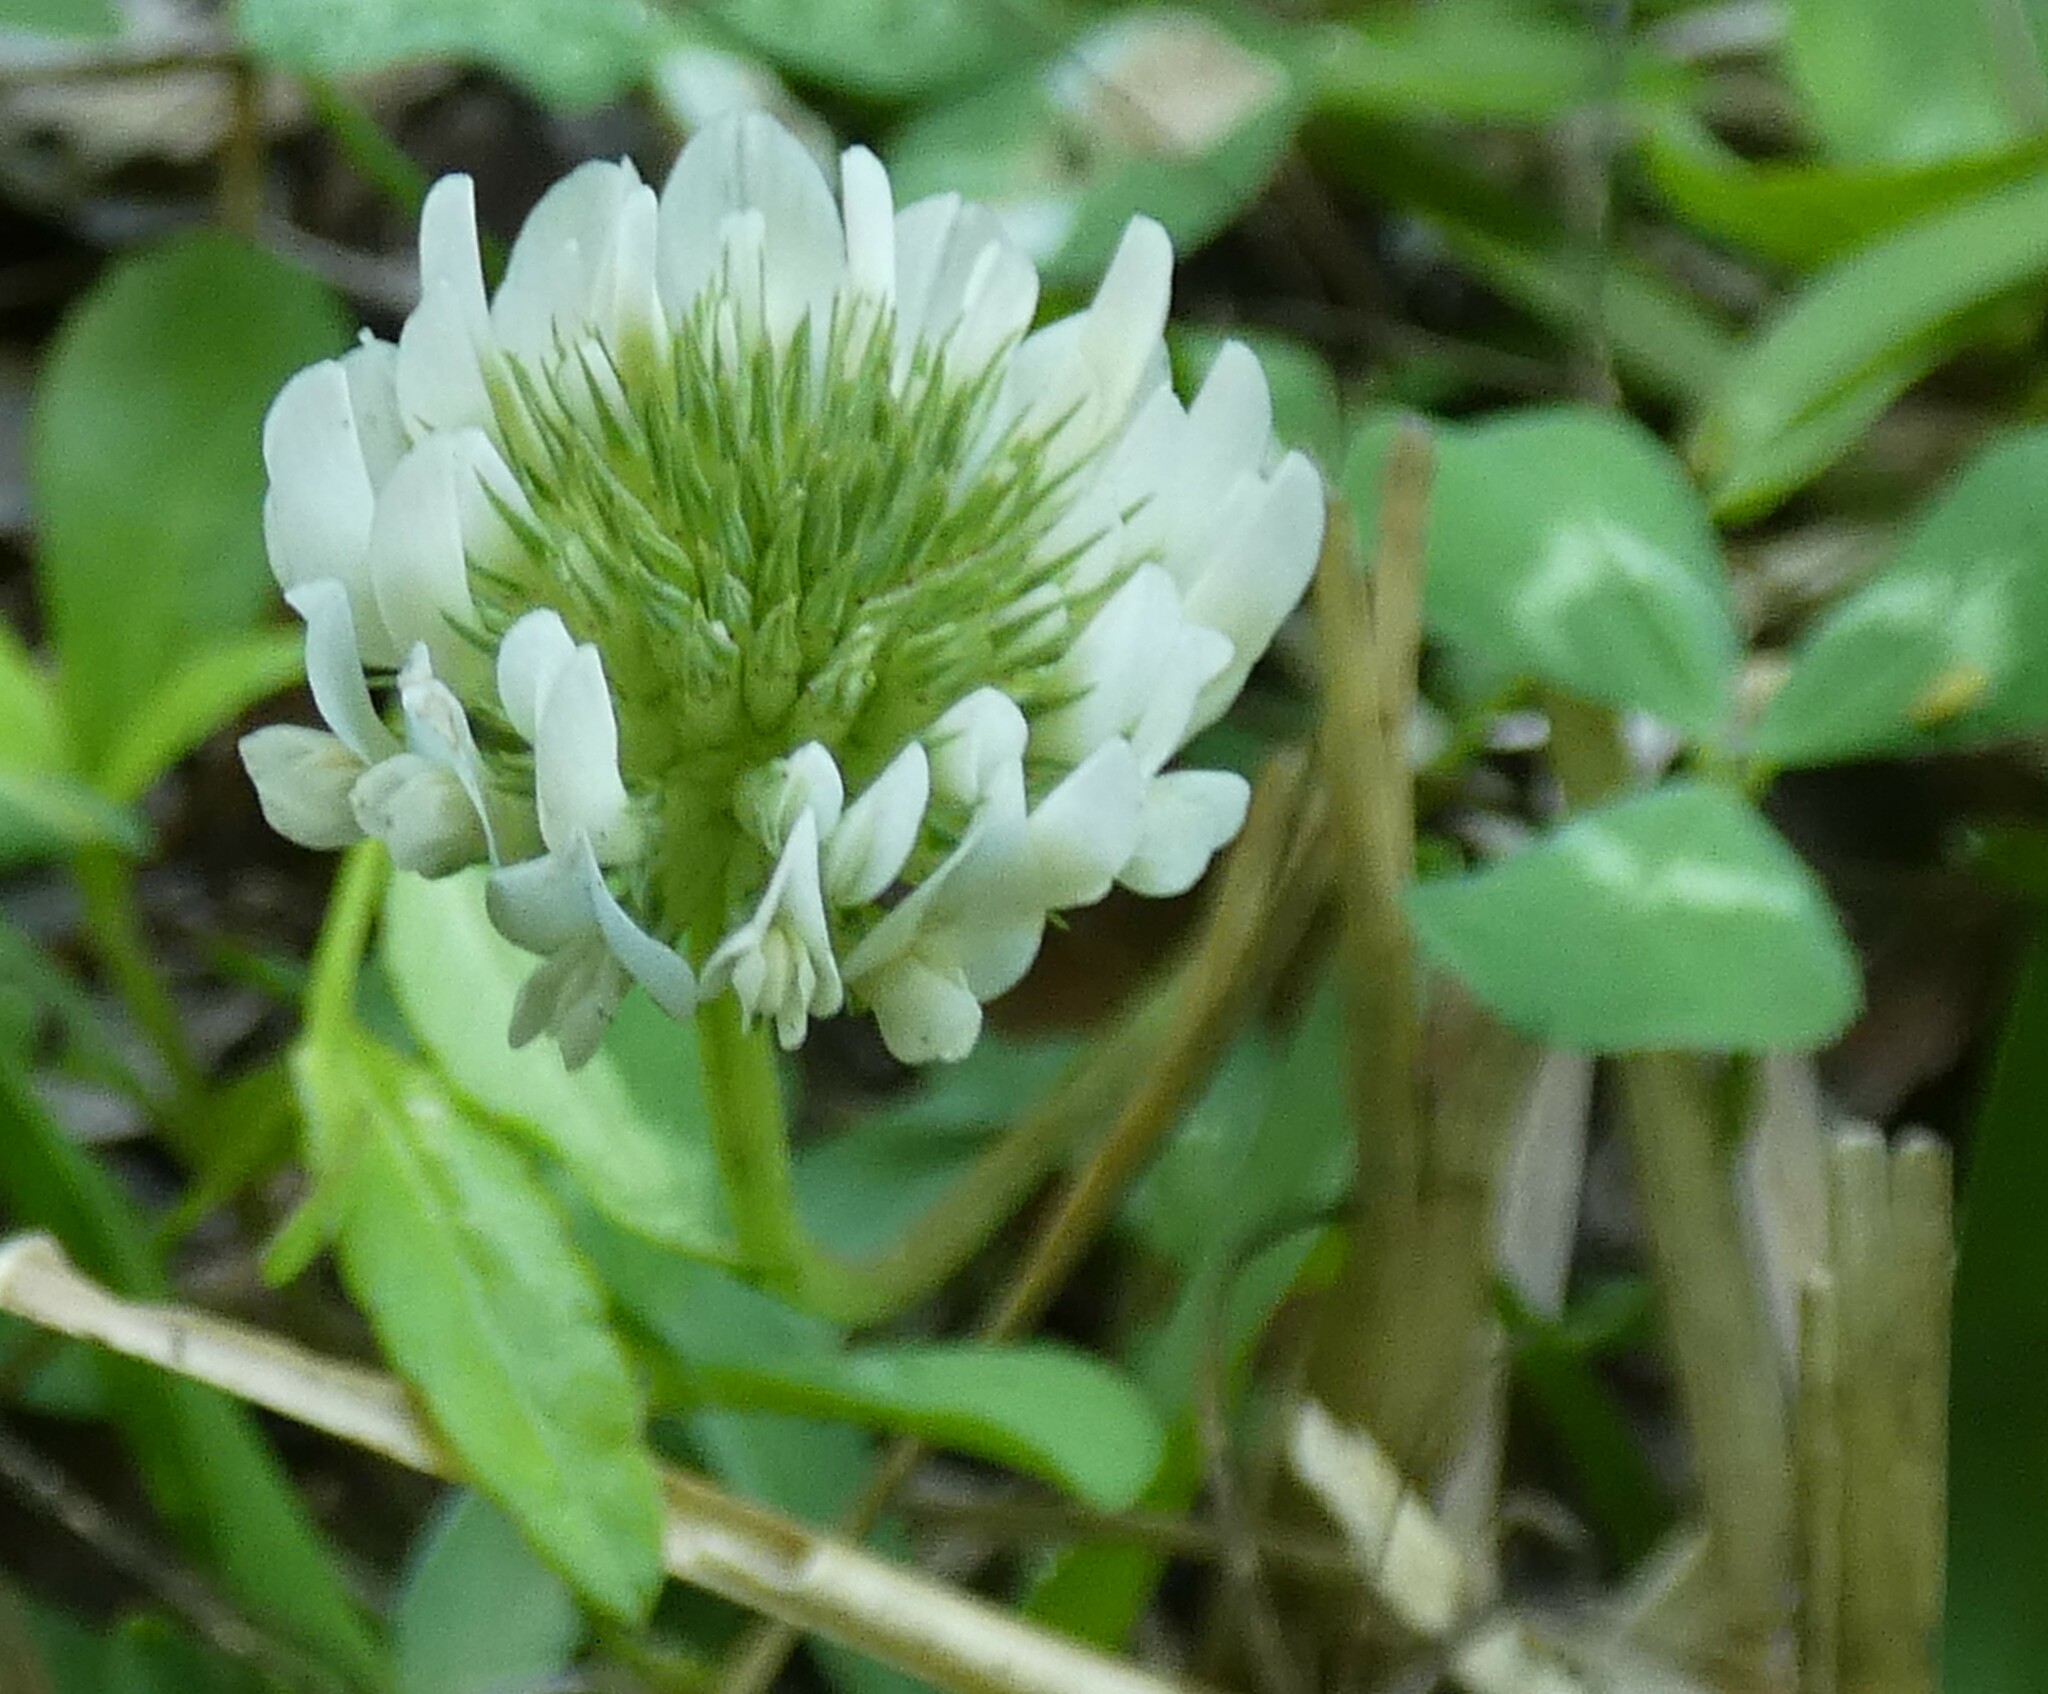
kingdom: Plantae
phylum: Tracheophyta
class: Magnoliopsida
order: Fabales
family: Fabaceae
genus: Trifolium
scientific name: Trifolium repens
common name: White clover
